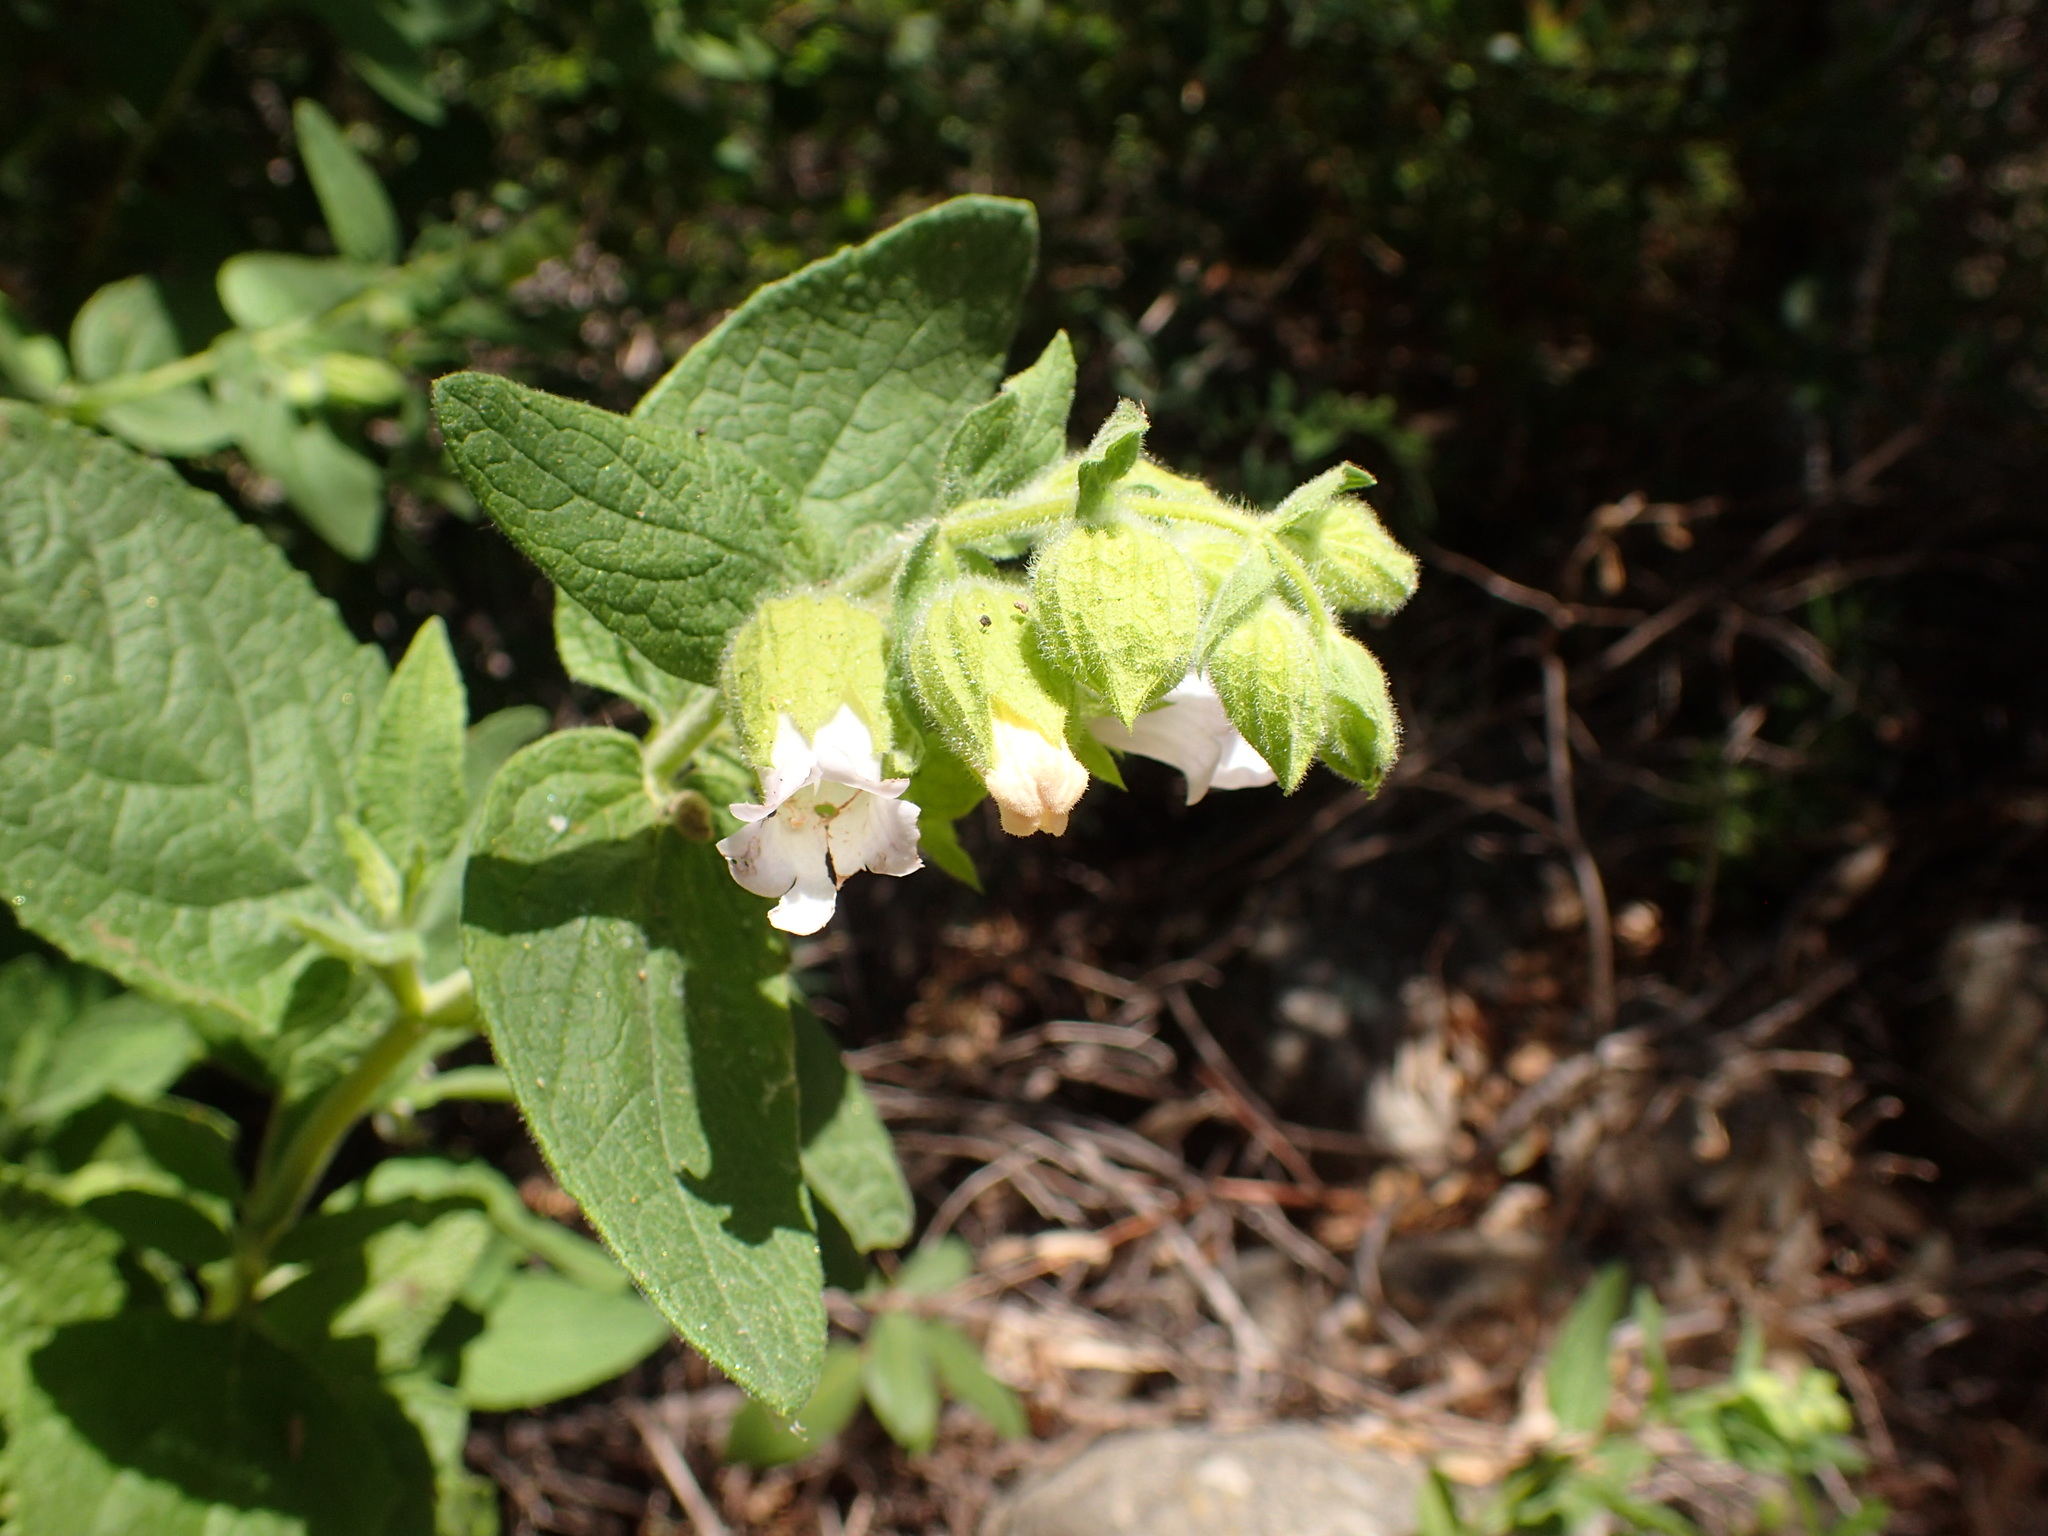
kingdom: Plantae
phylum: Tracheophyta
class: Magnoliopsida
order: Lamiales
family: Lamiaceae
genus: Lepechinia
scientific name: Lepechinia calycina
